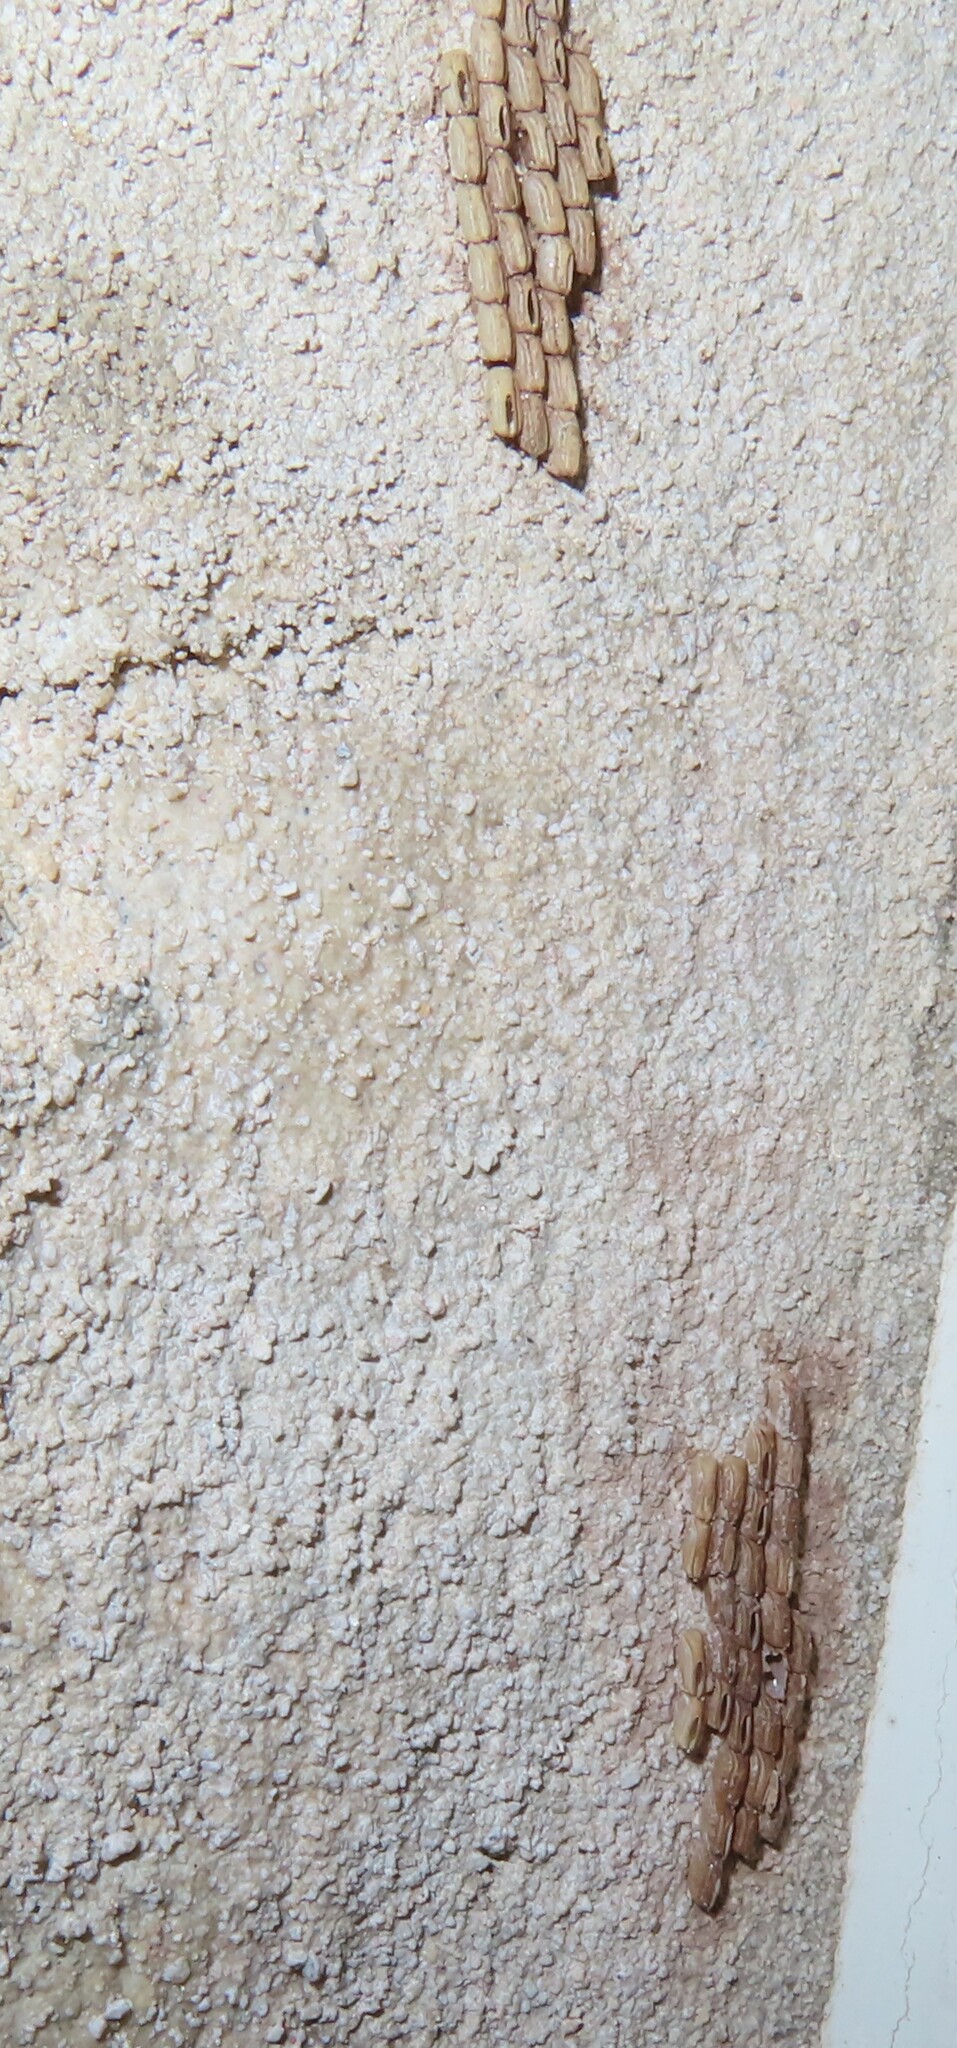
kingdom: Animalia
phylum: Arthropoda
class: Insecta
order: Hemiptera
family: Fulgoridae
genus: Lycorma
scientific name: Lycorma delicatula
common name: Spotted lanternfly
